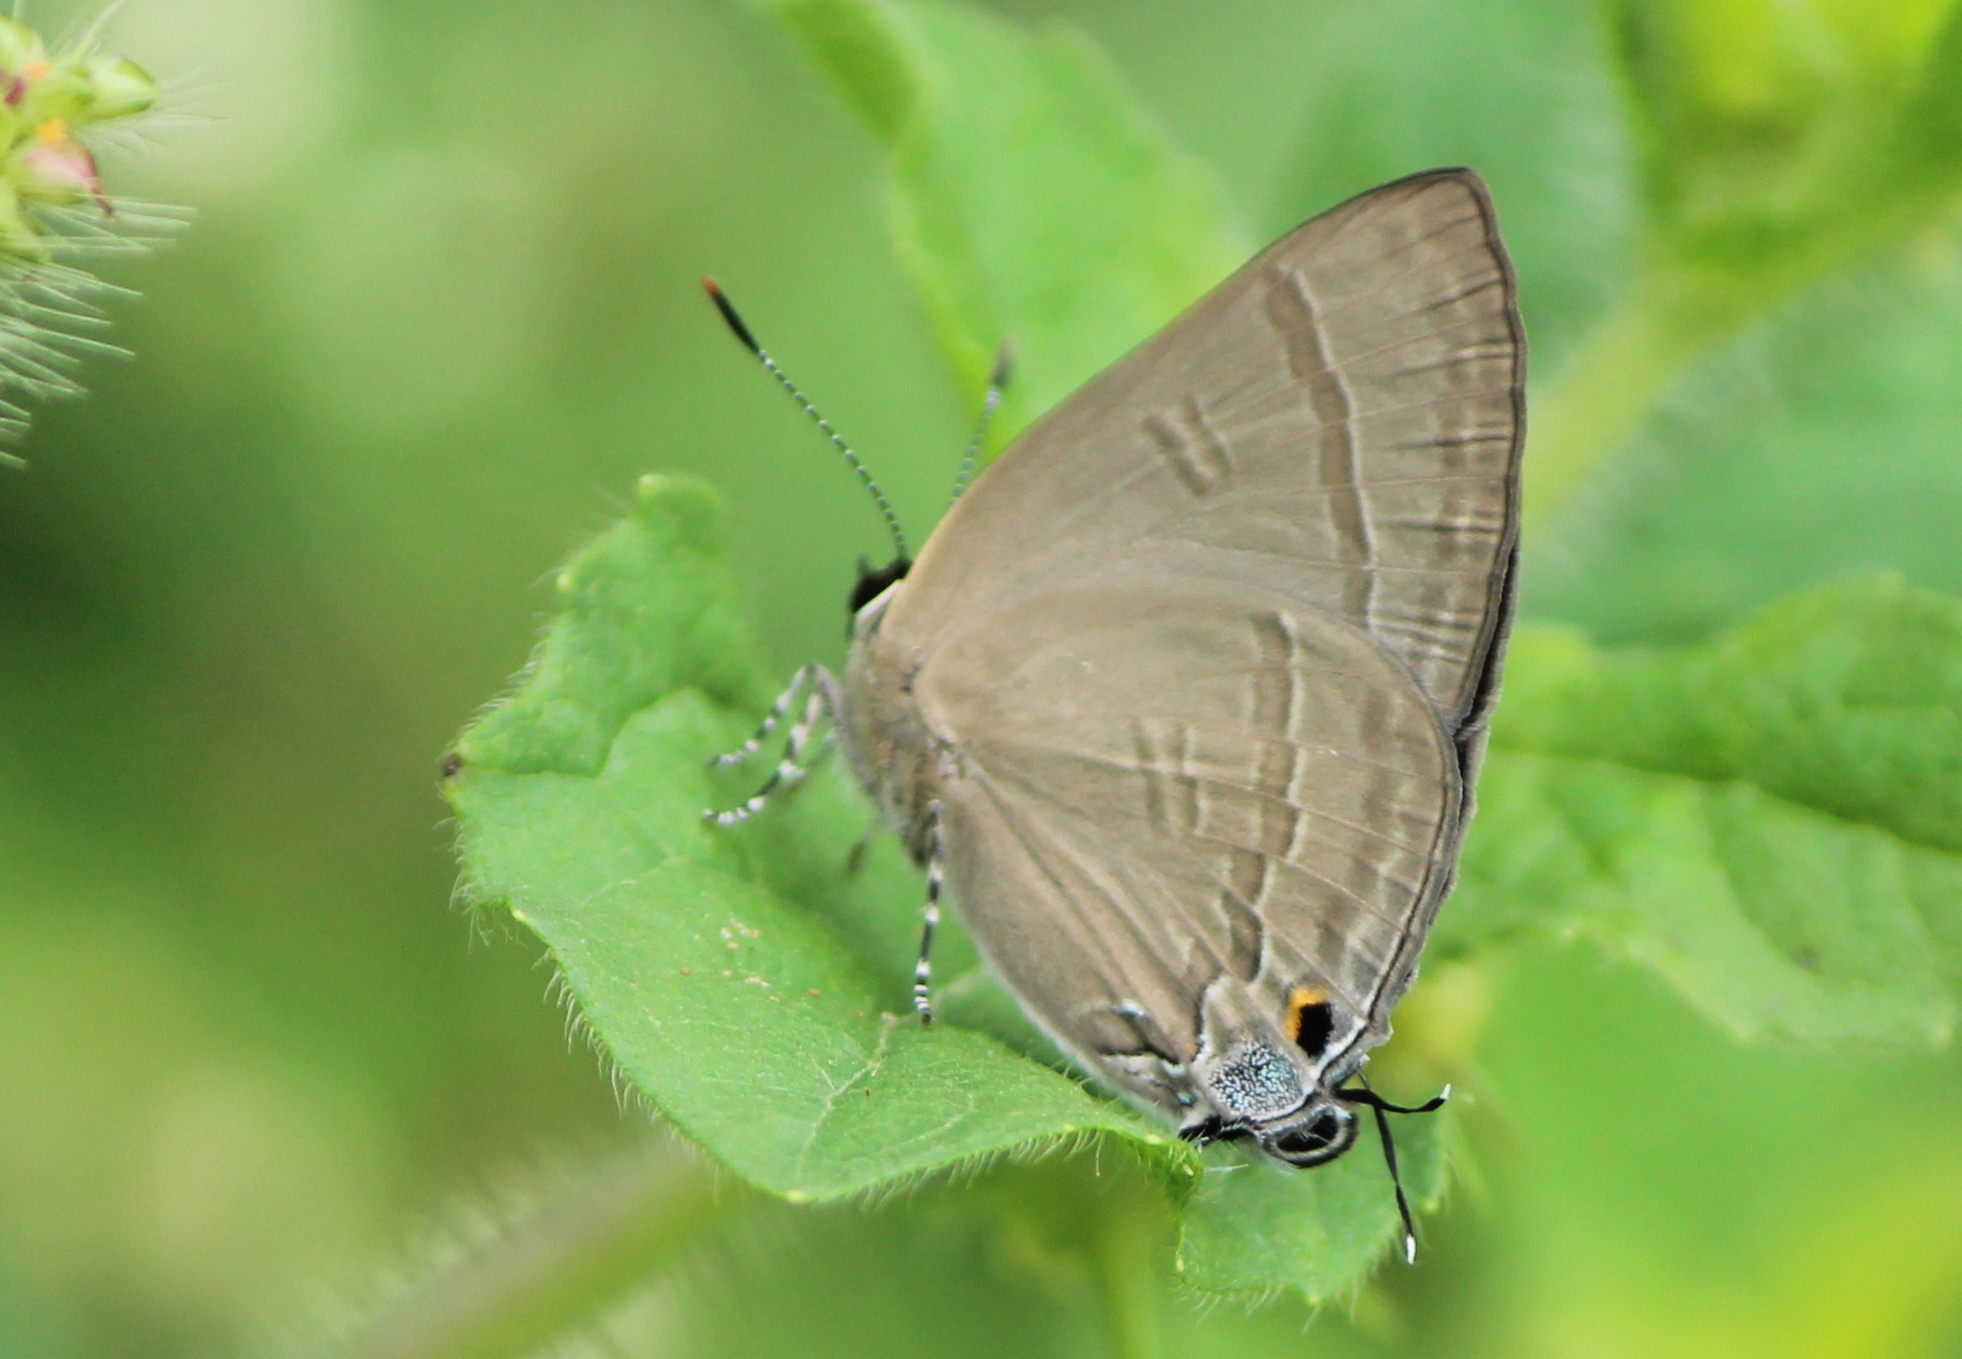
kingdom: Animalia
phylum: Arthropoda
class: Insecta
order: Lepidoptera
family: Lycaenidae
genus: Rapala
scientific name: Rapala manea
